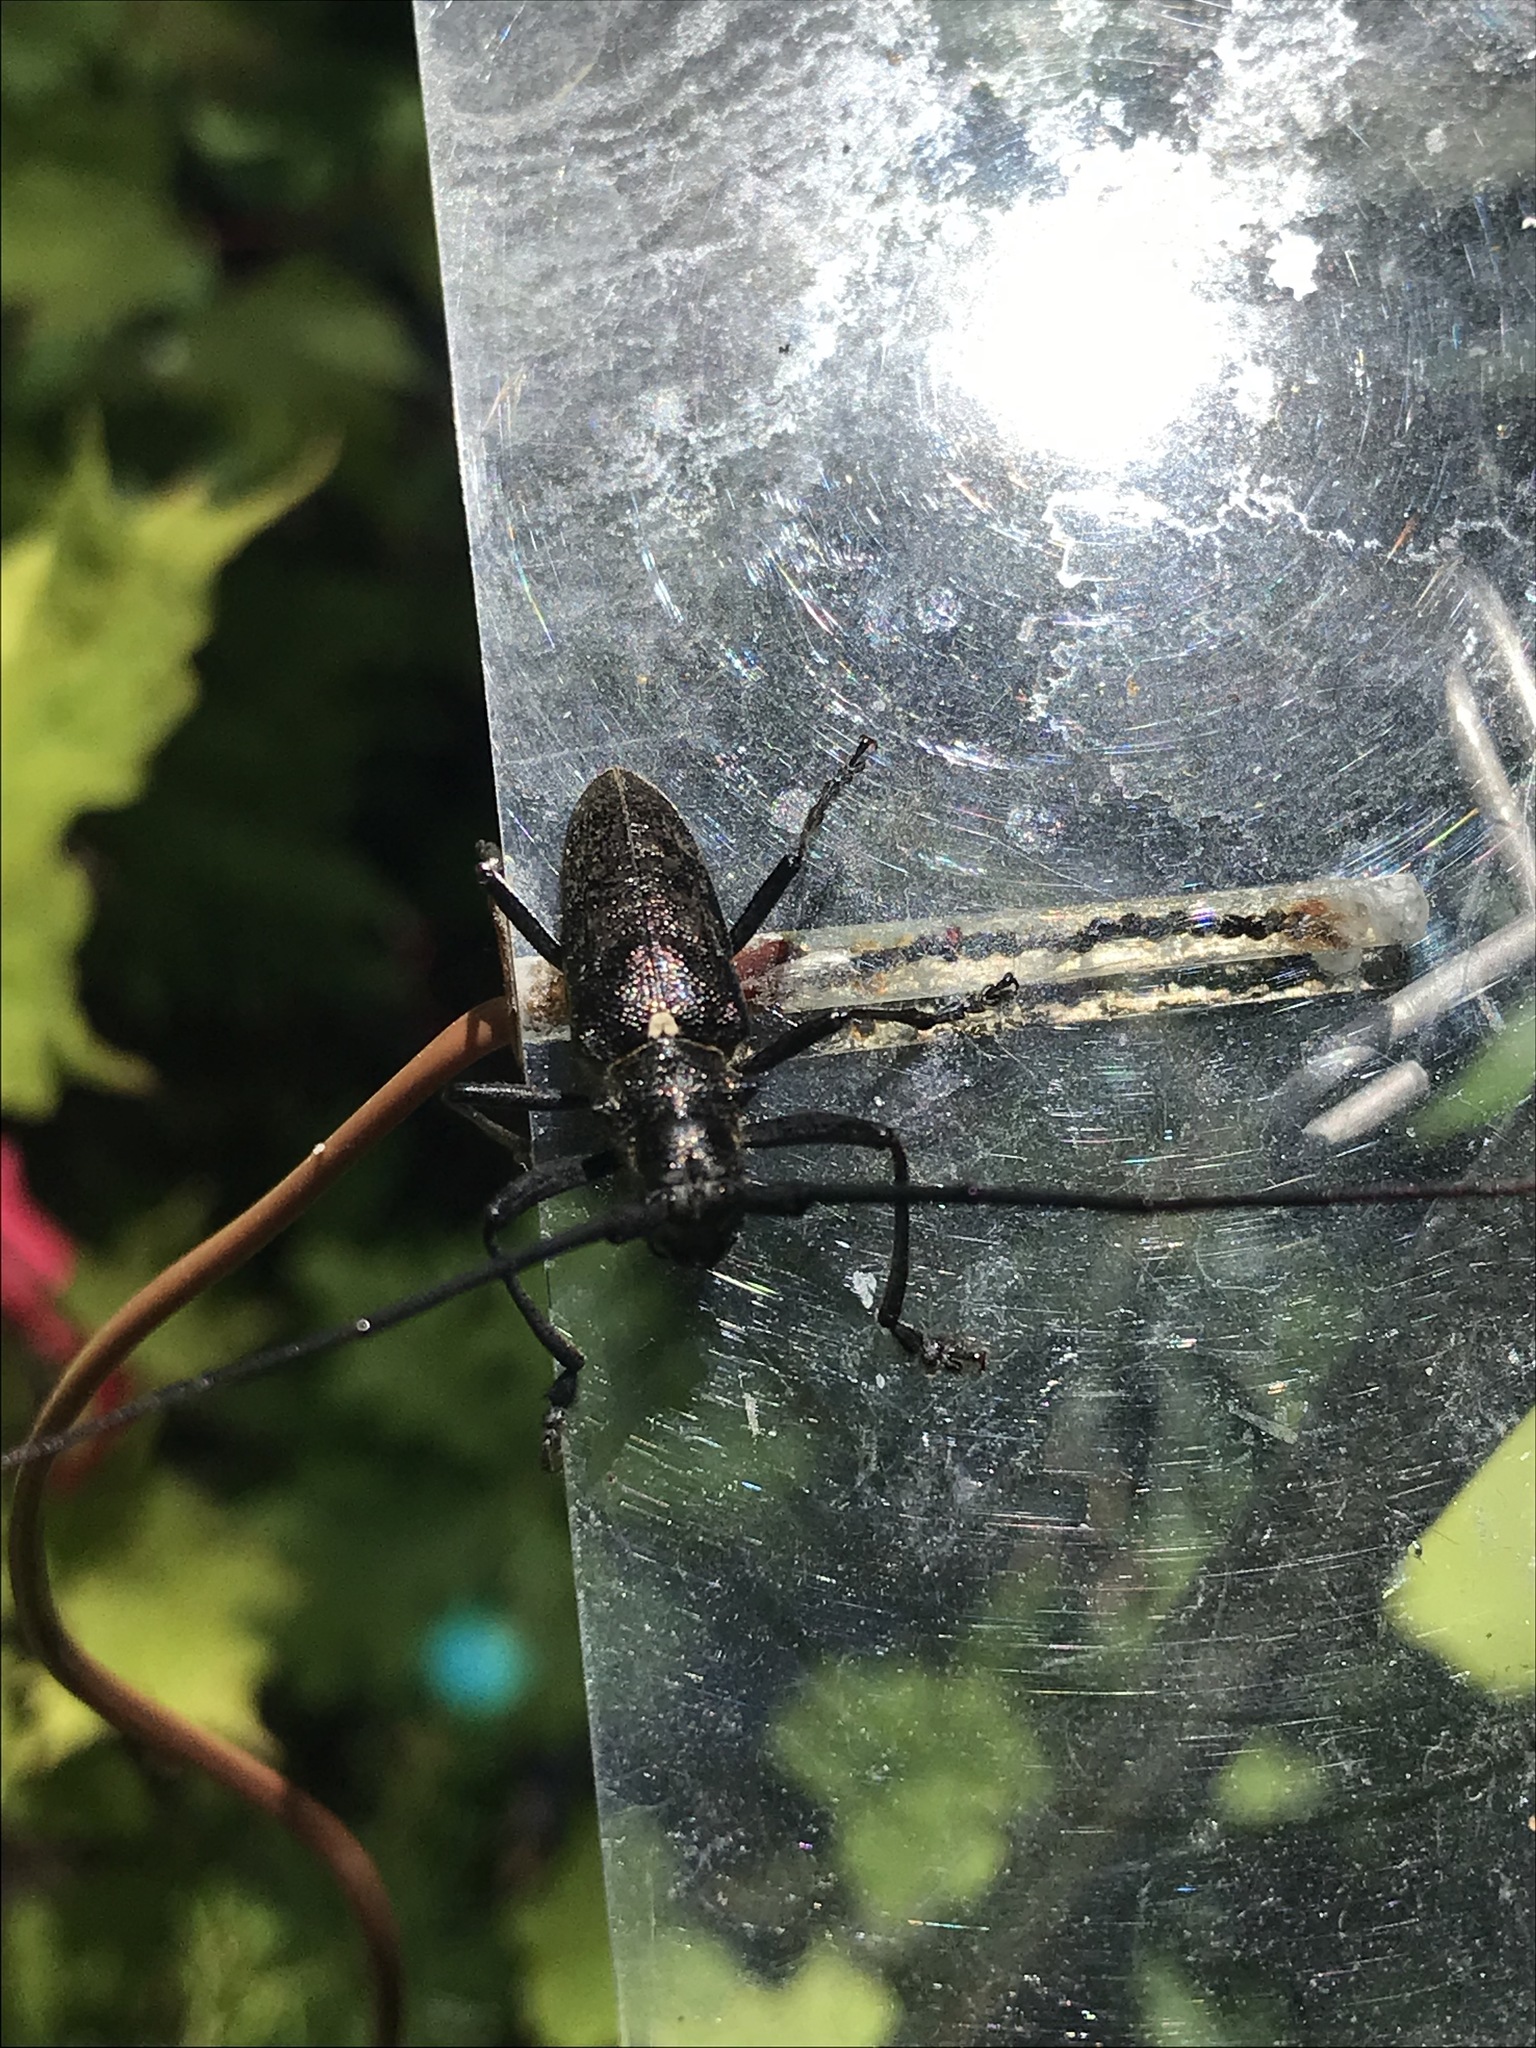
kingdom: Animalia
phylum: Arthropoda
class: Insecta
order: Coleoptera
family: Cerambycidae
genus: Monochamus
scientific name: Monochamus scutellatus
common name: White-spotted sawyer beetle
